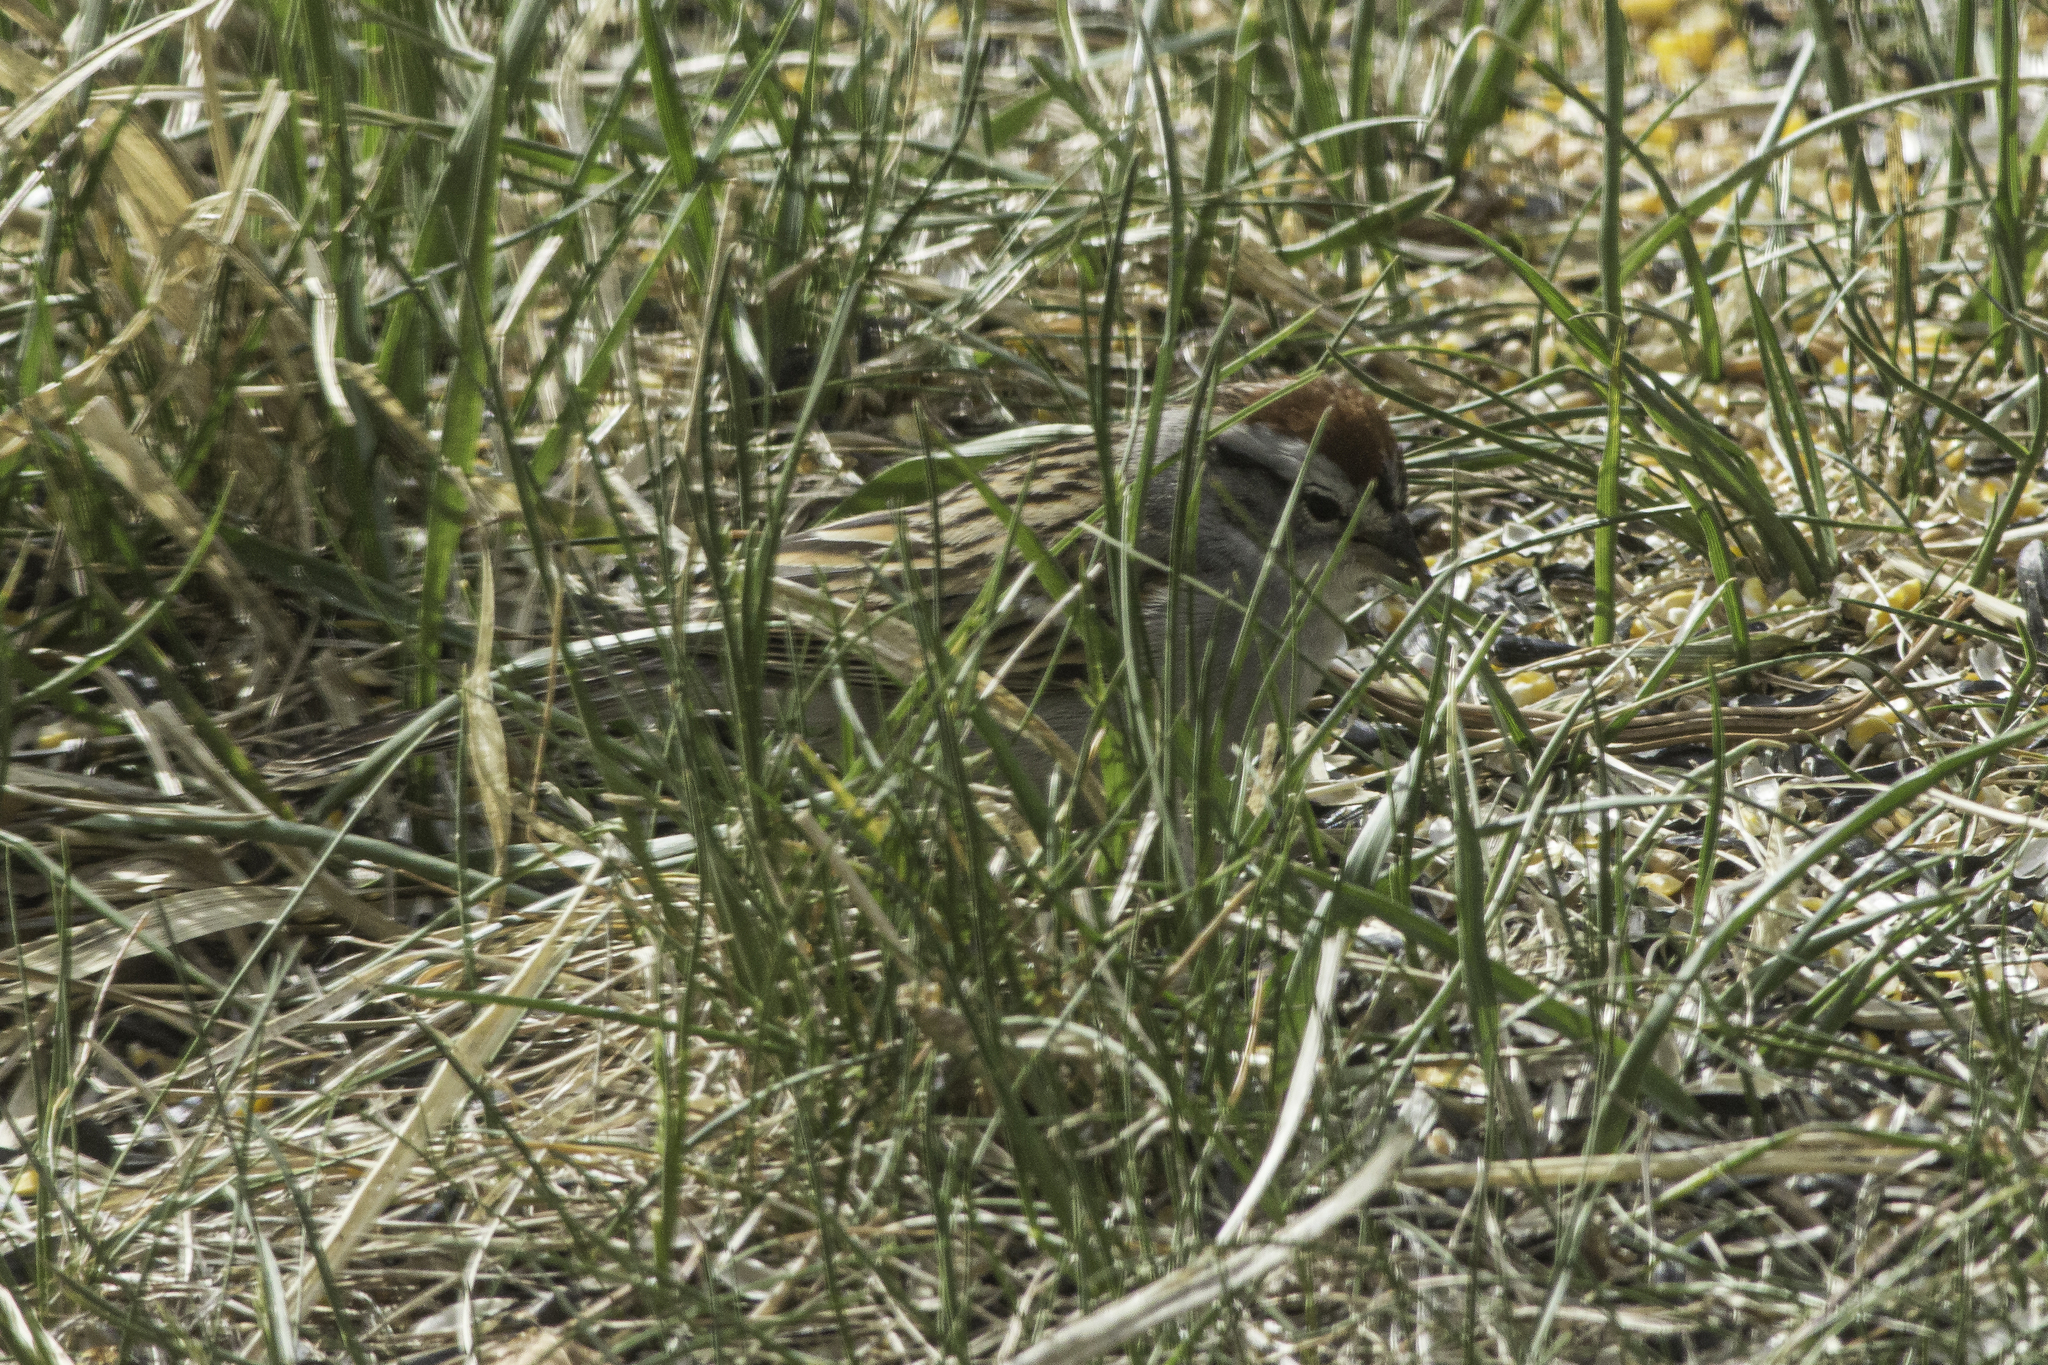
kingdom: Animalia
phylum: Chordata
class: Aves
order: Passeriformes
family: Passerellidae
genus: Spizella
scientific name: Spizella passerina
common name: Chipping sparrow
